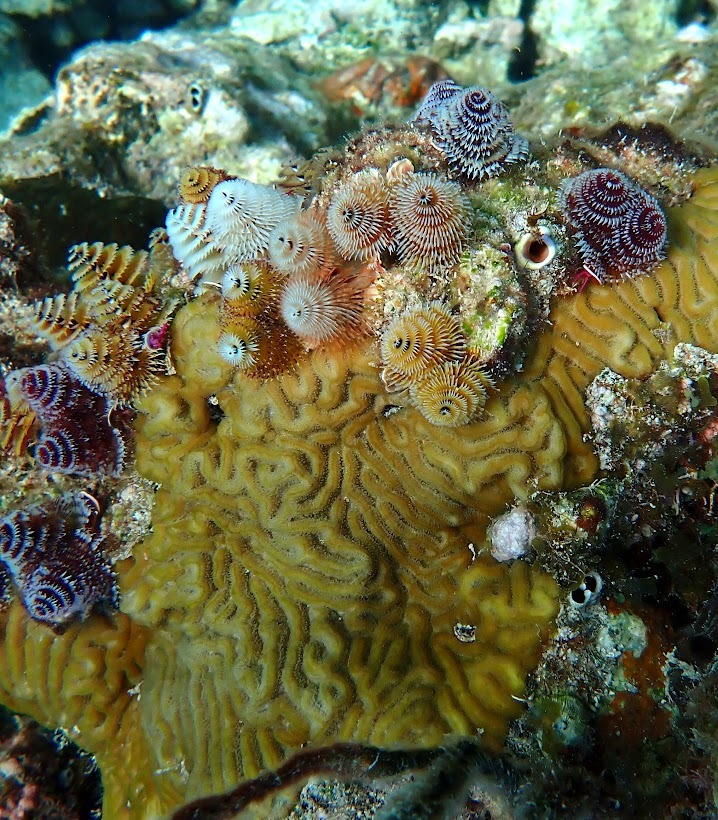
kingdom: Animalia
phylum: Annelida
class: Polychaeta
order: Sabellida
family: Serpulidae
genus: Spirobranchus
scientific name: Spirobranchus giganteus
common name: Christmas tree worm
